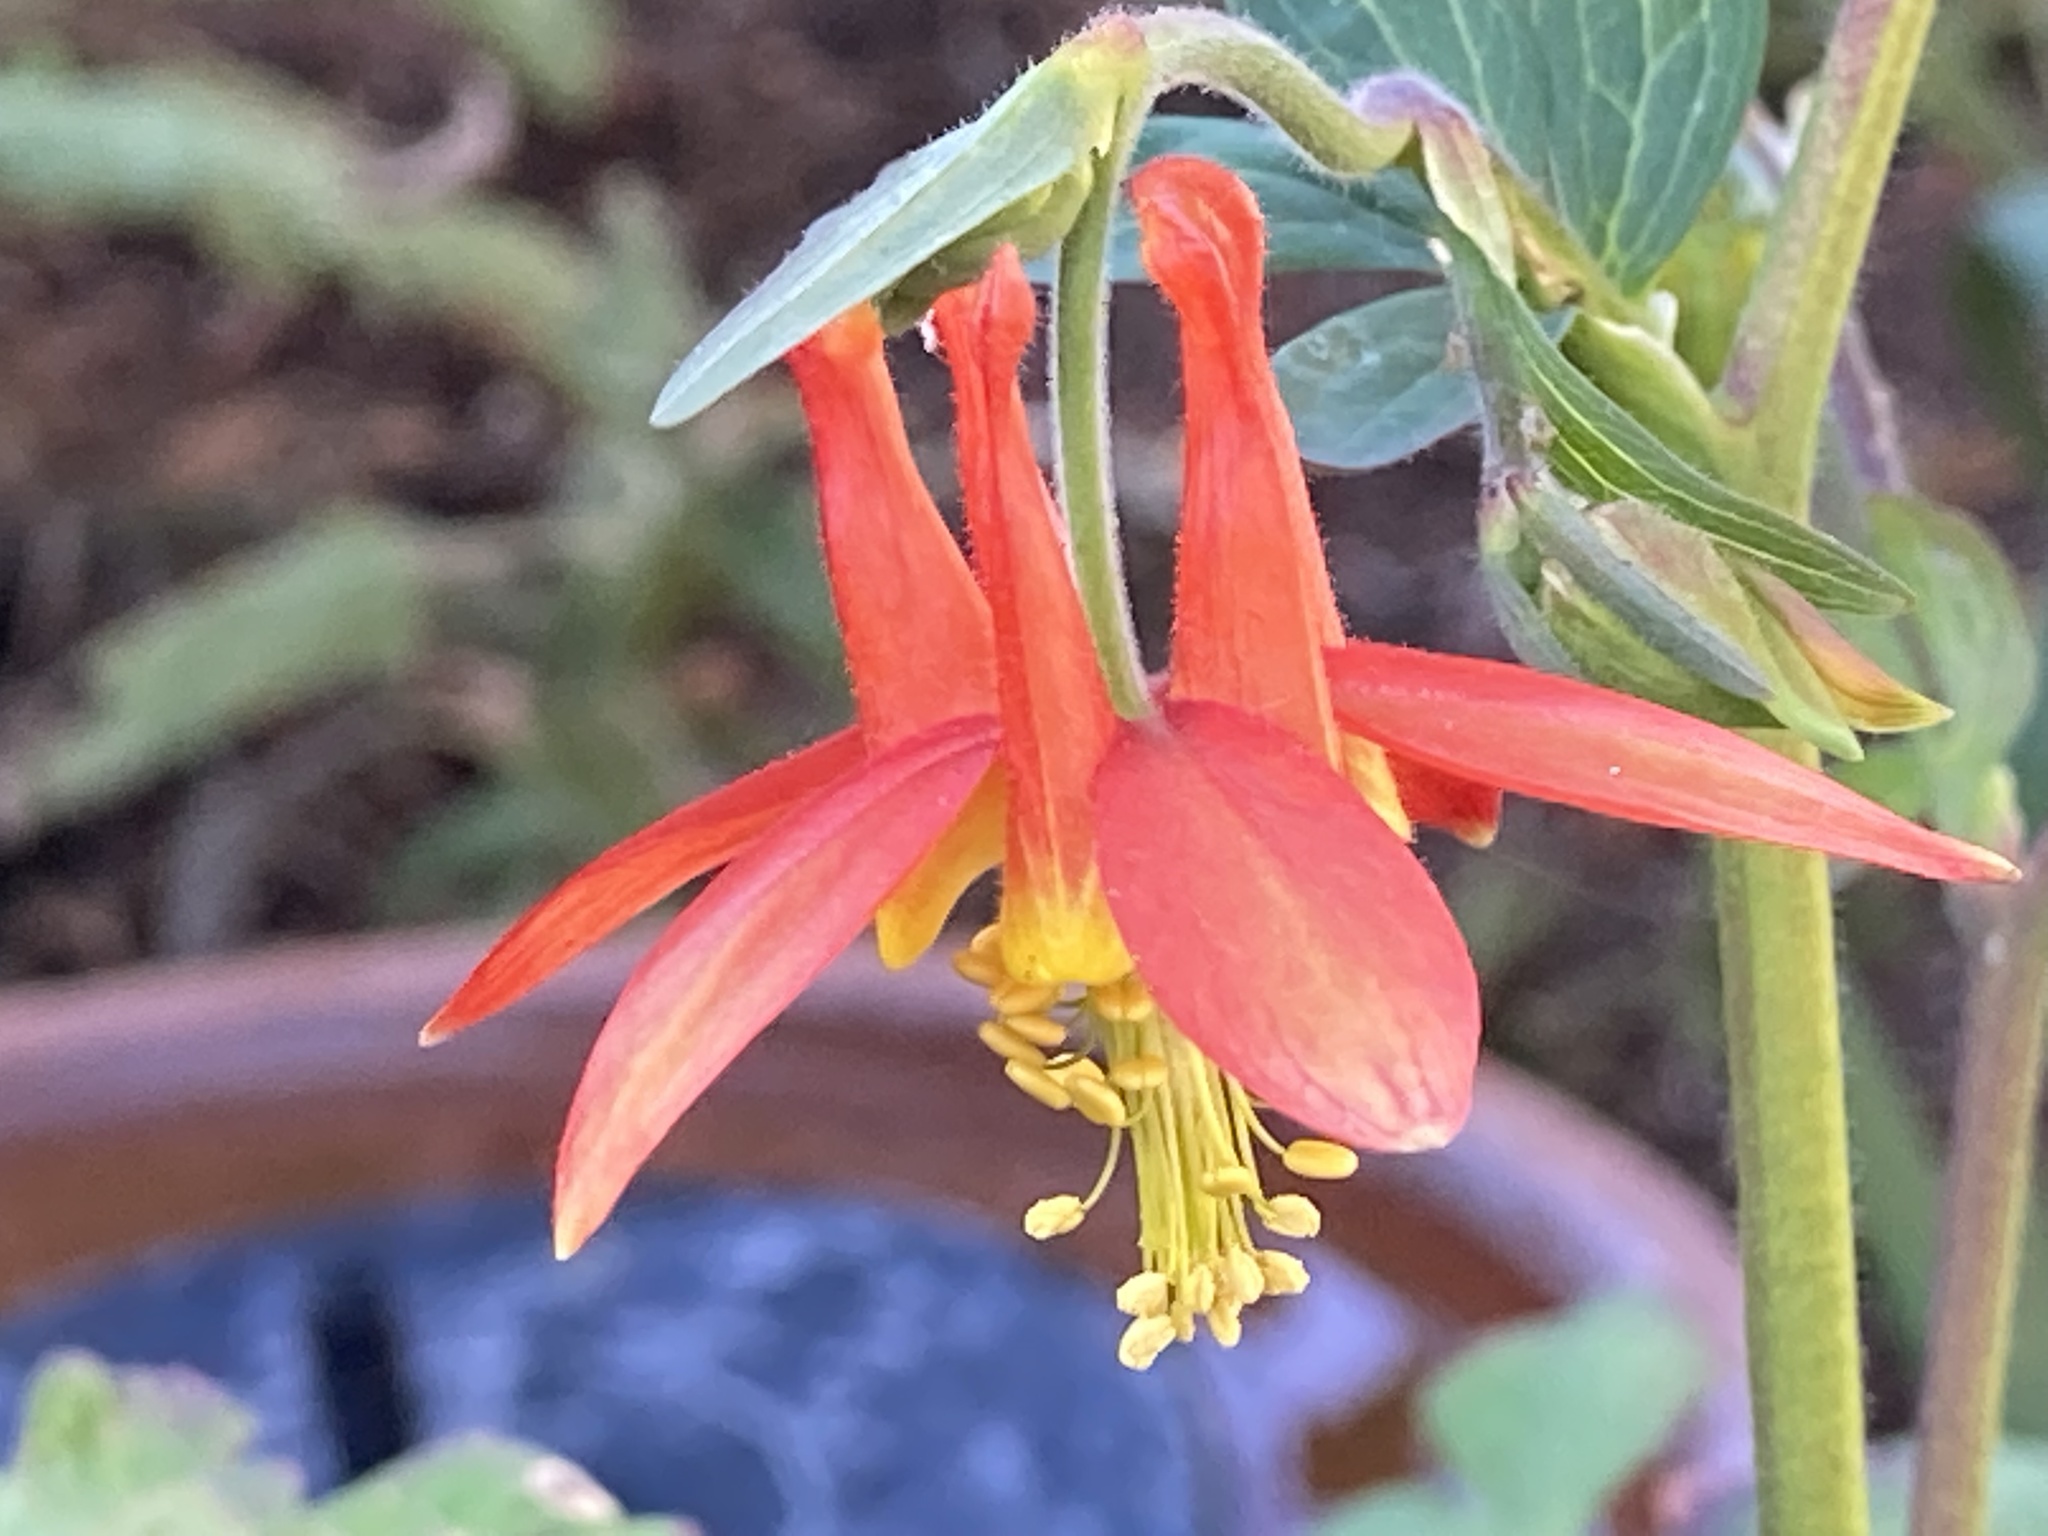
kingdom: Plantae
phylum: Tracheophyta
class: Magnoliopsida
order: Ranunculales
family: Ranunculaceae
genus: Aquilegia
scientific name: Aquilegia formosa
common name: Sitka columbine
